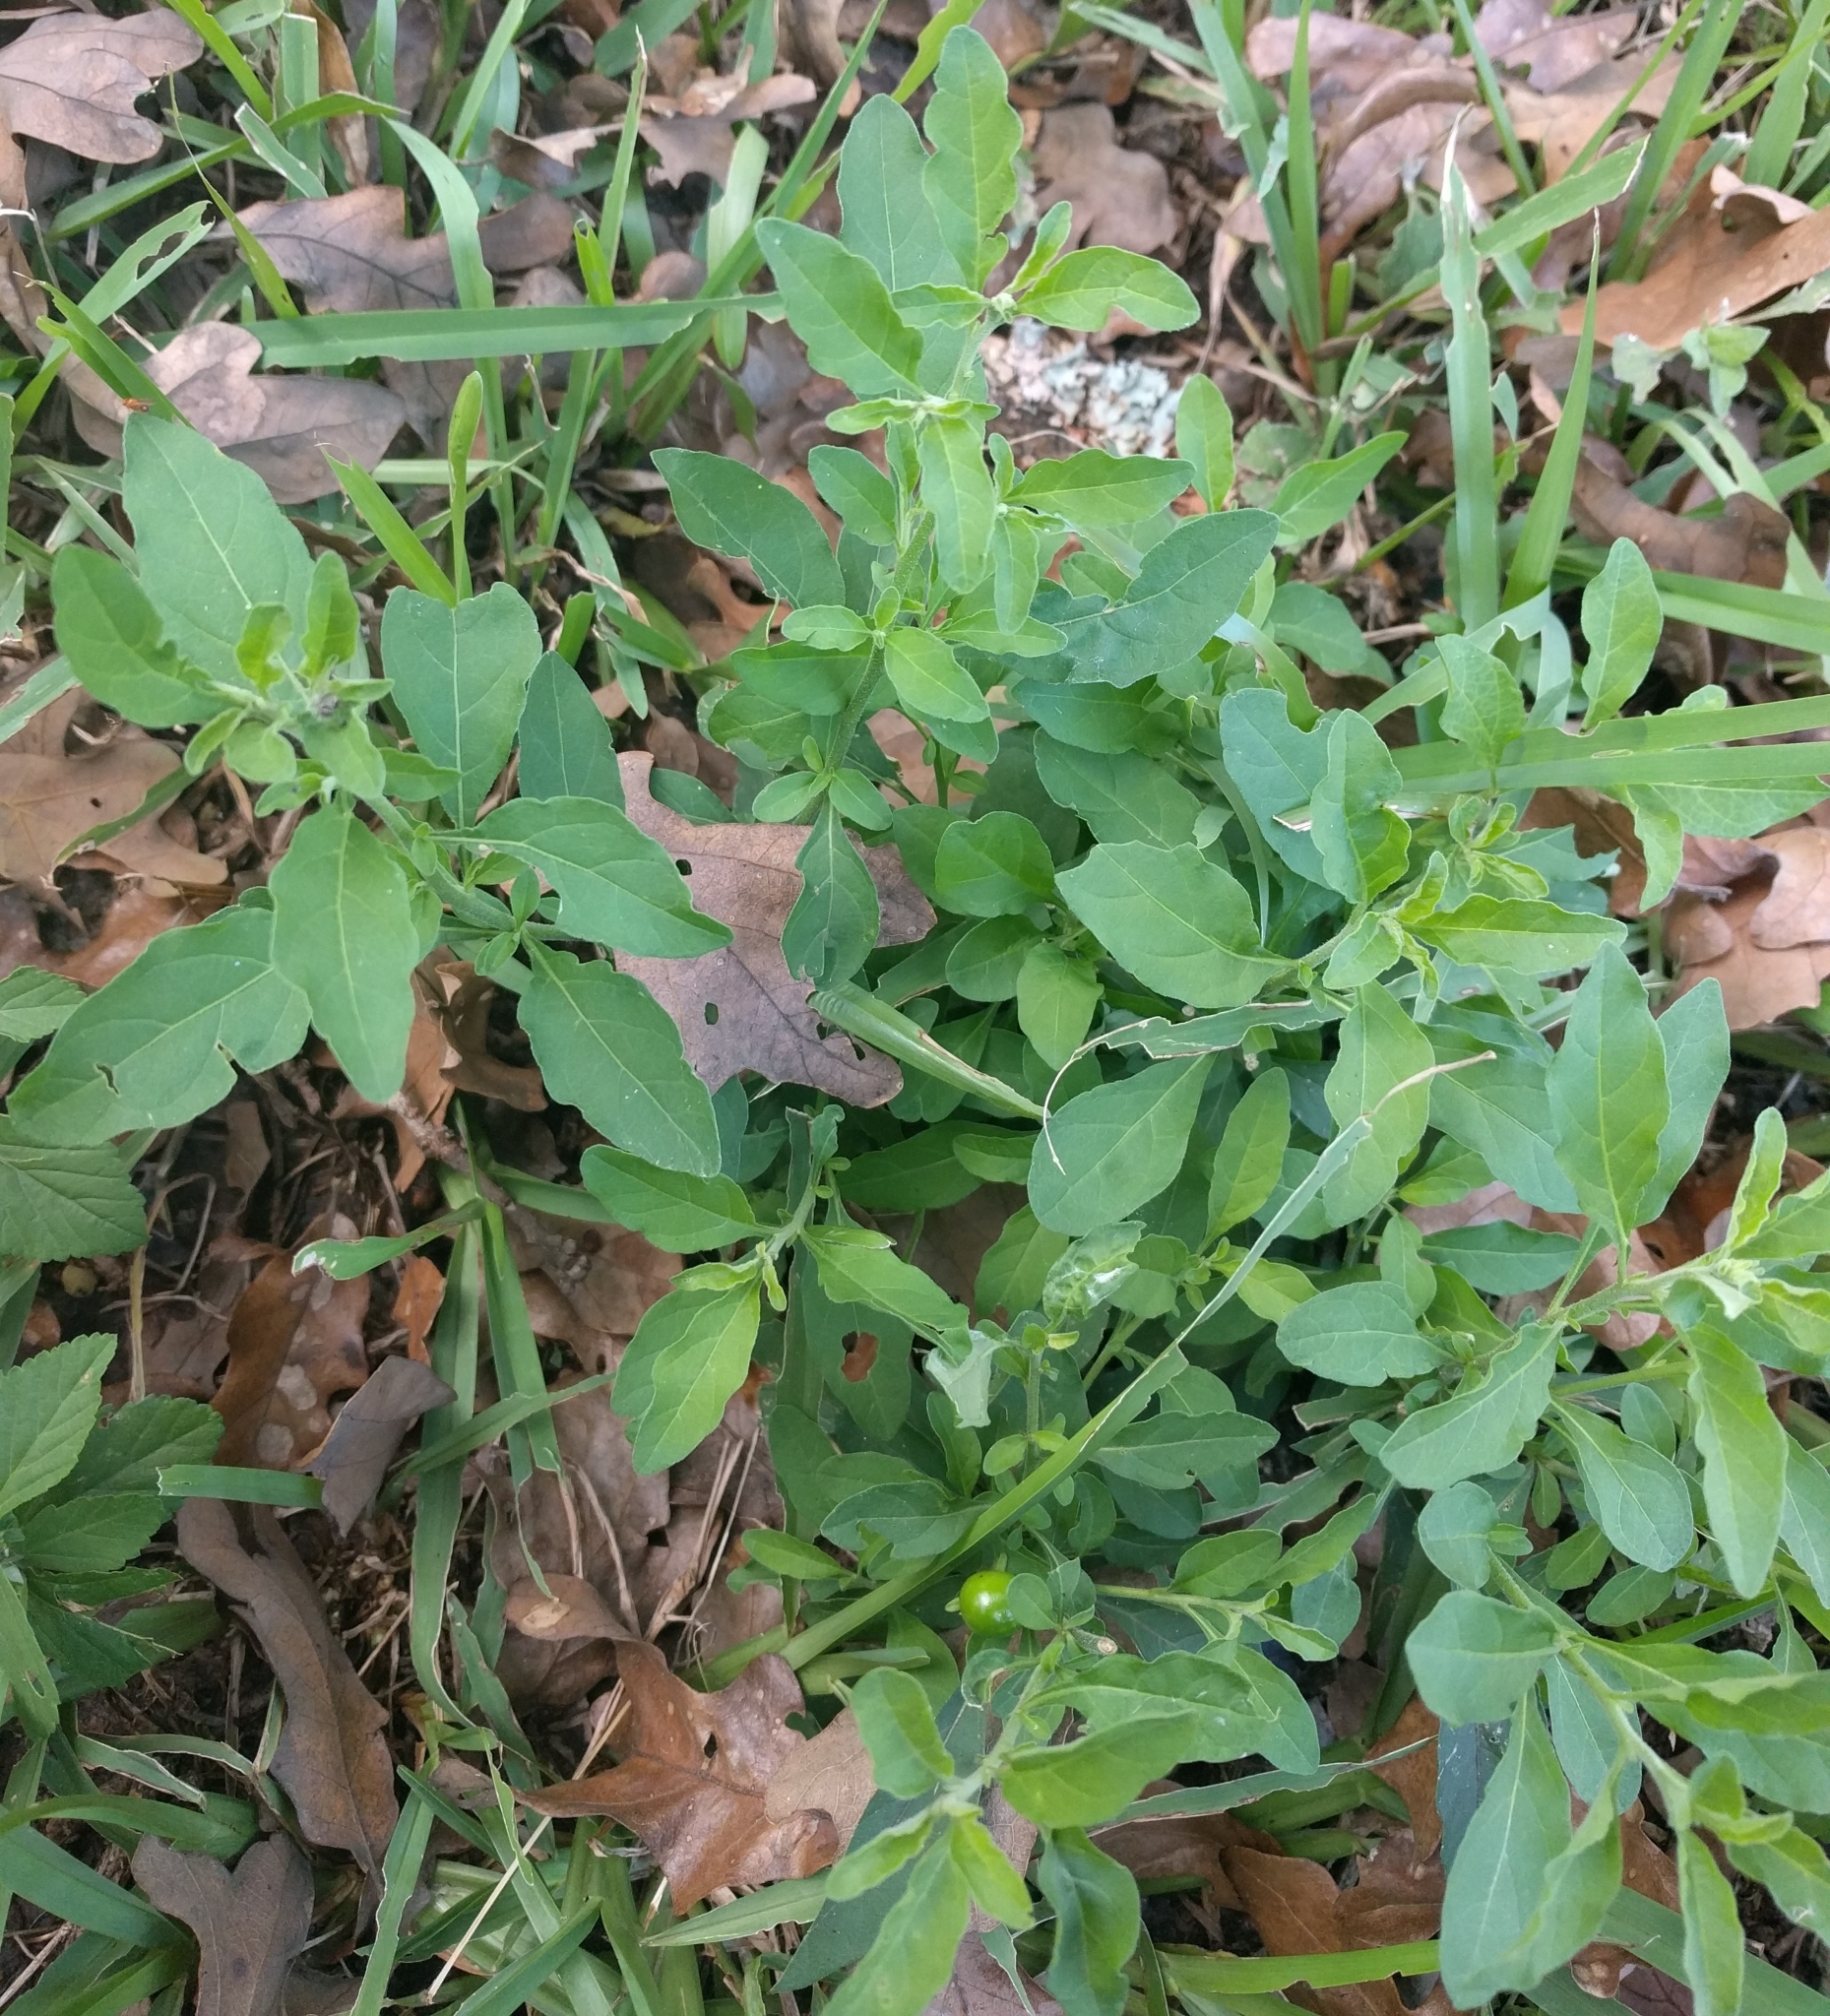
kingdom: Plantae
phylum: Tracheophyta
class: Magnoliopsida
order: Solanales
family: Solanaceae
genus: Solanum
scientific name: Solanum pseudocapsicum
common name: Jerusalem cherry
